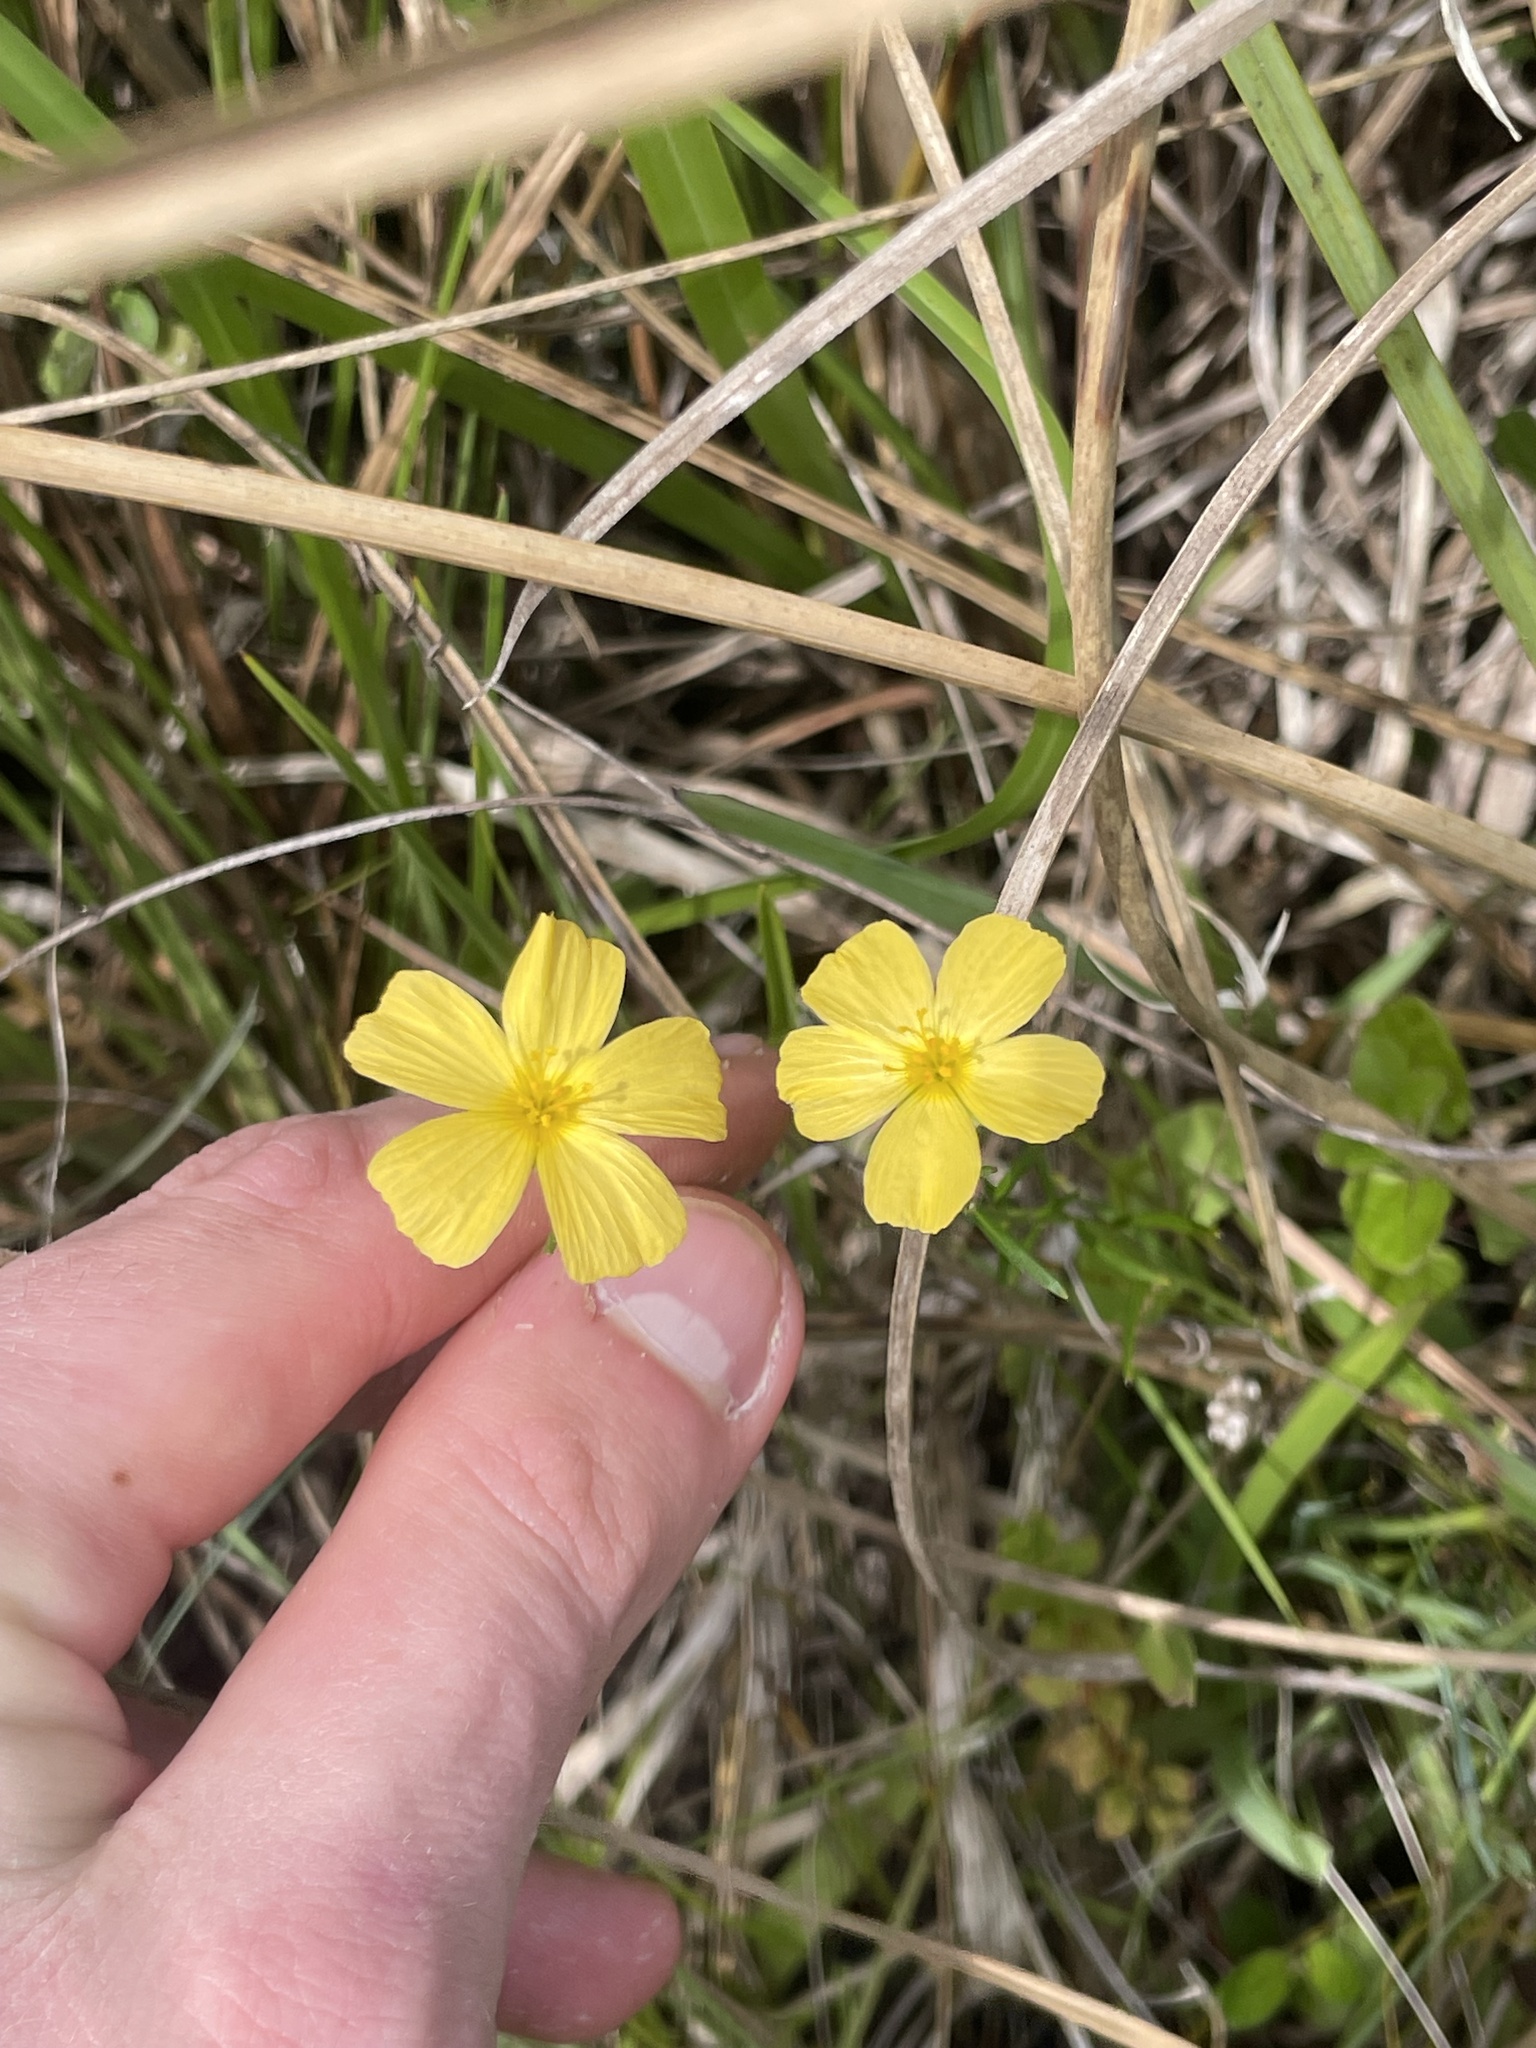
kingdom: Plantae
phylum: Tracheophyta
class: Magnoliopsida
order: Malpighiales
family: Turneraceae
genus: Piriqueta
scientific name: Piriqueta cistoides
